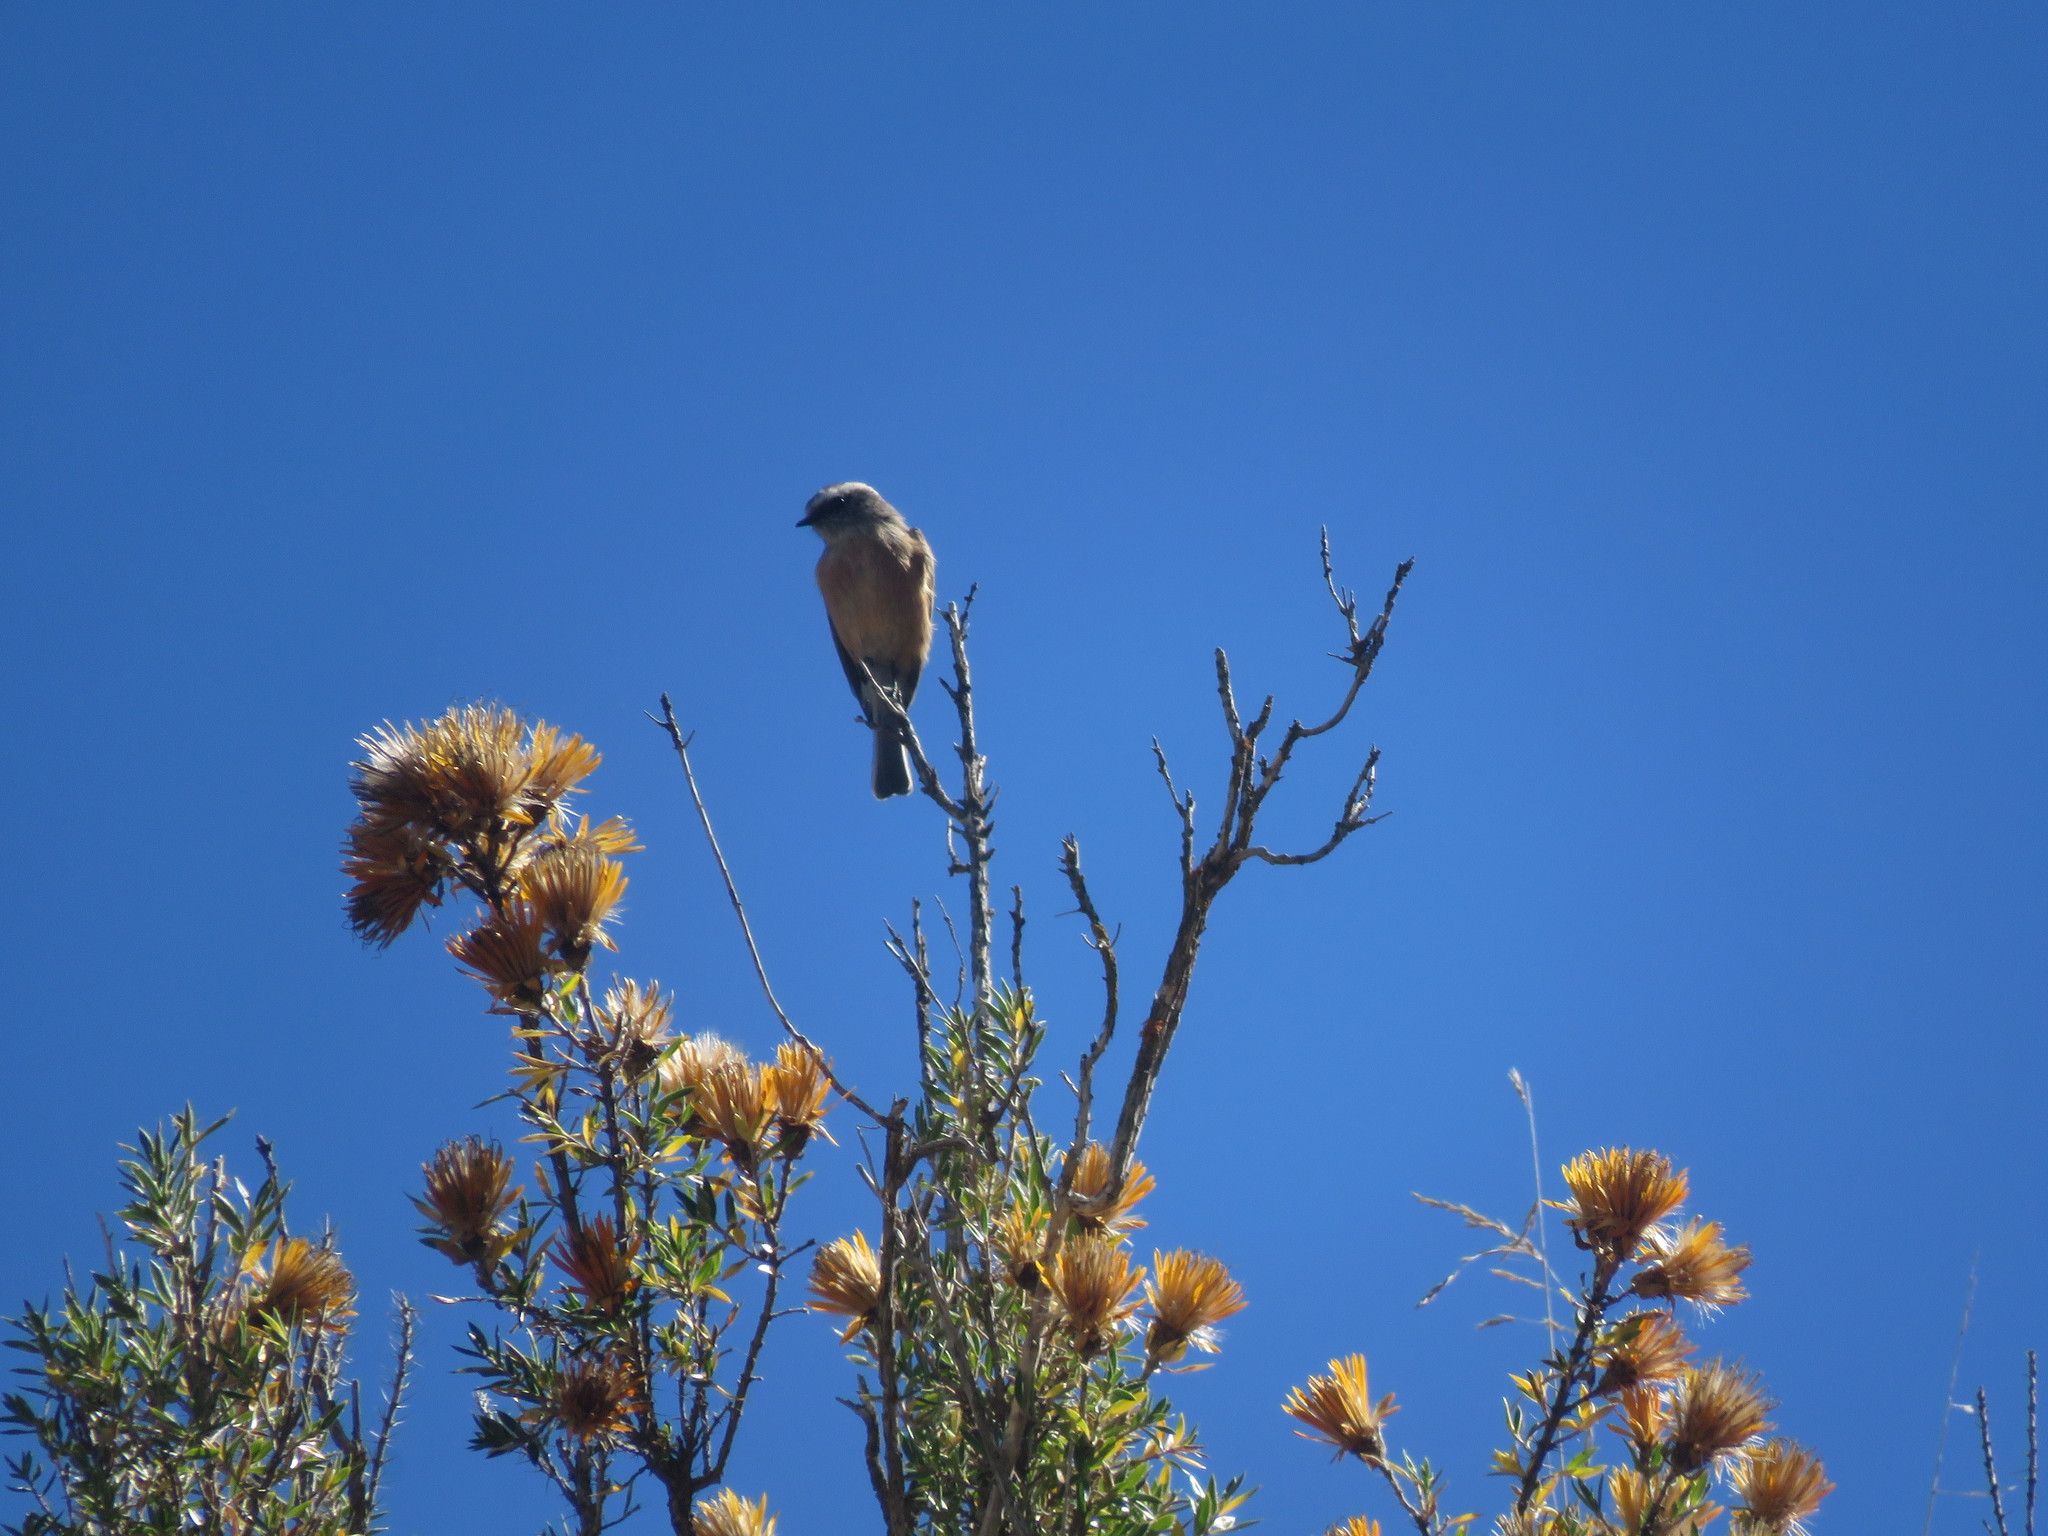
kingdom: Animalia
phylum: Chordata
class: Aves
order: Passeriformes
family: Tyrannidae
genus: Ochthoeca
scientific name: Ochthoeca oenanthoides
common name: D'orbigny's chat-tyrant
